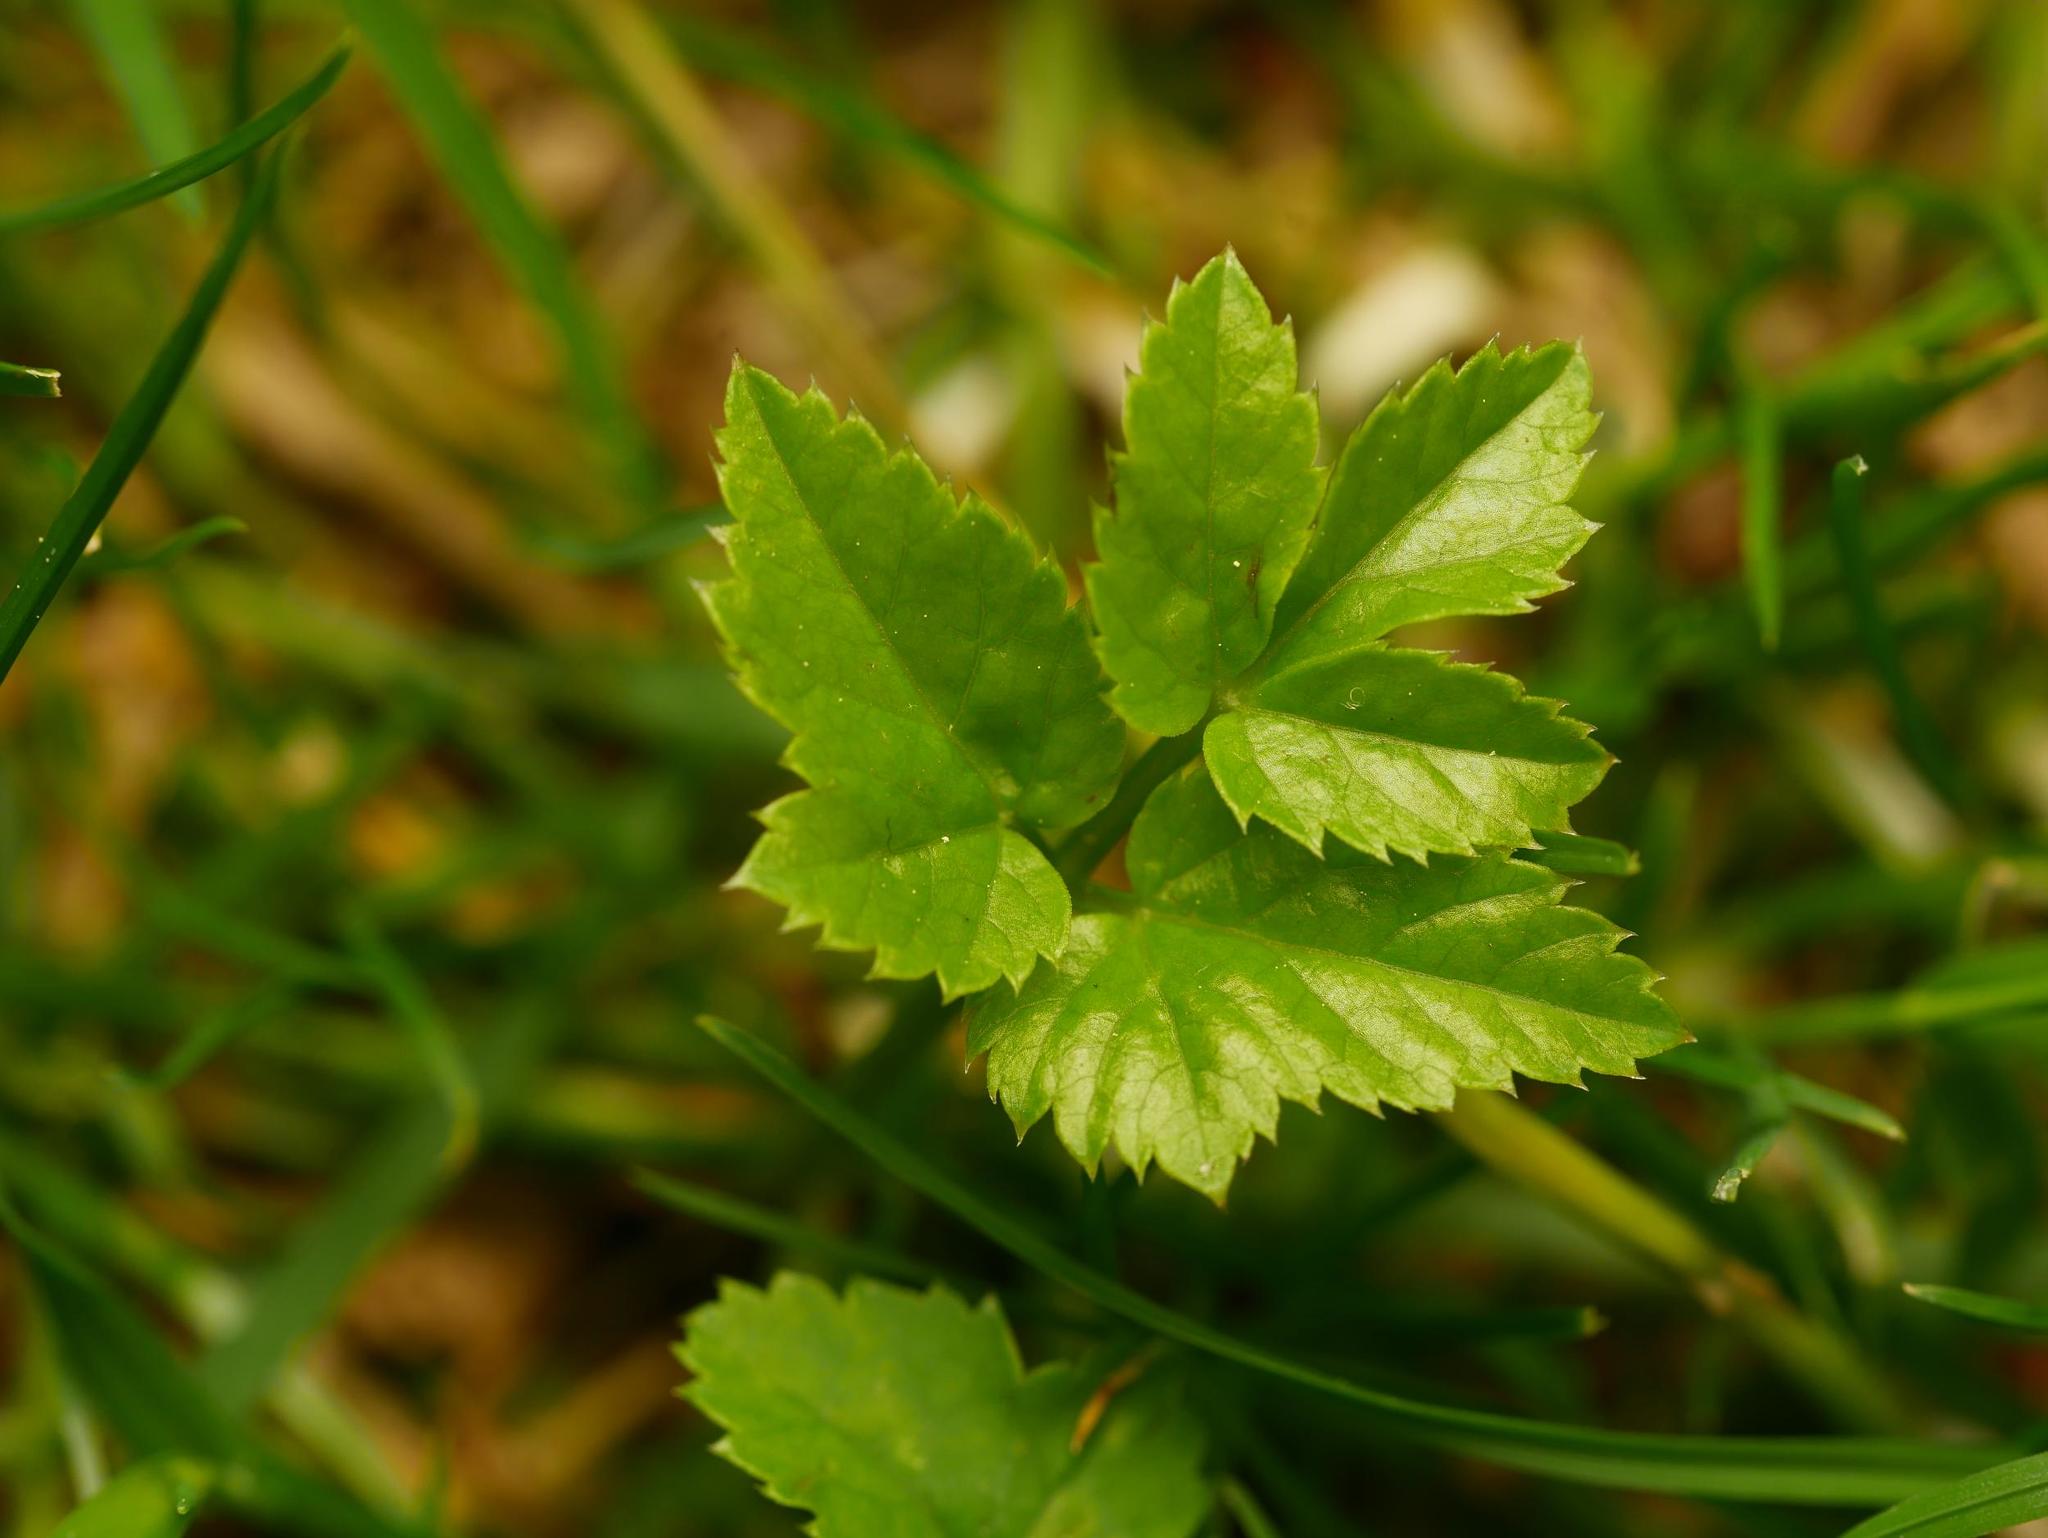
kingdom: Plantae
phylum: Tracheophyta
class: Magnoliopsida
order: Apiales
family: Apiaceae
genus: Aegopodium
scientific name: Aegopodium podagraria
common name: Ground-elder
